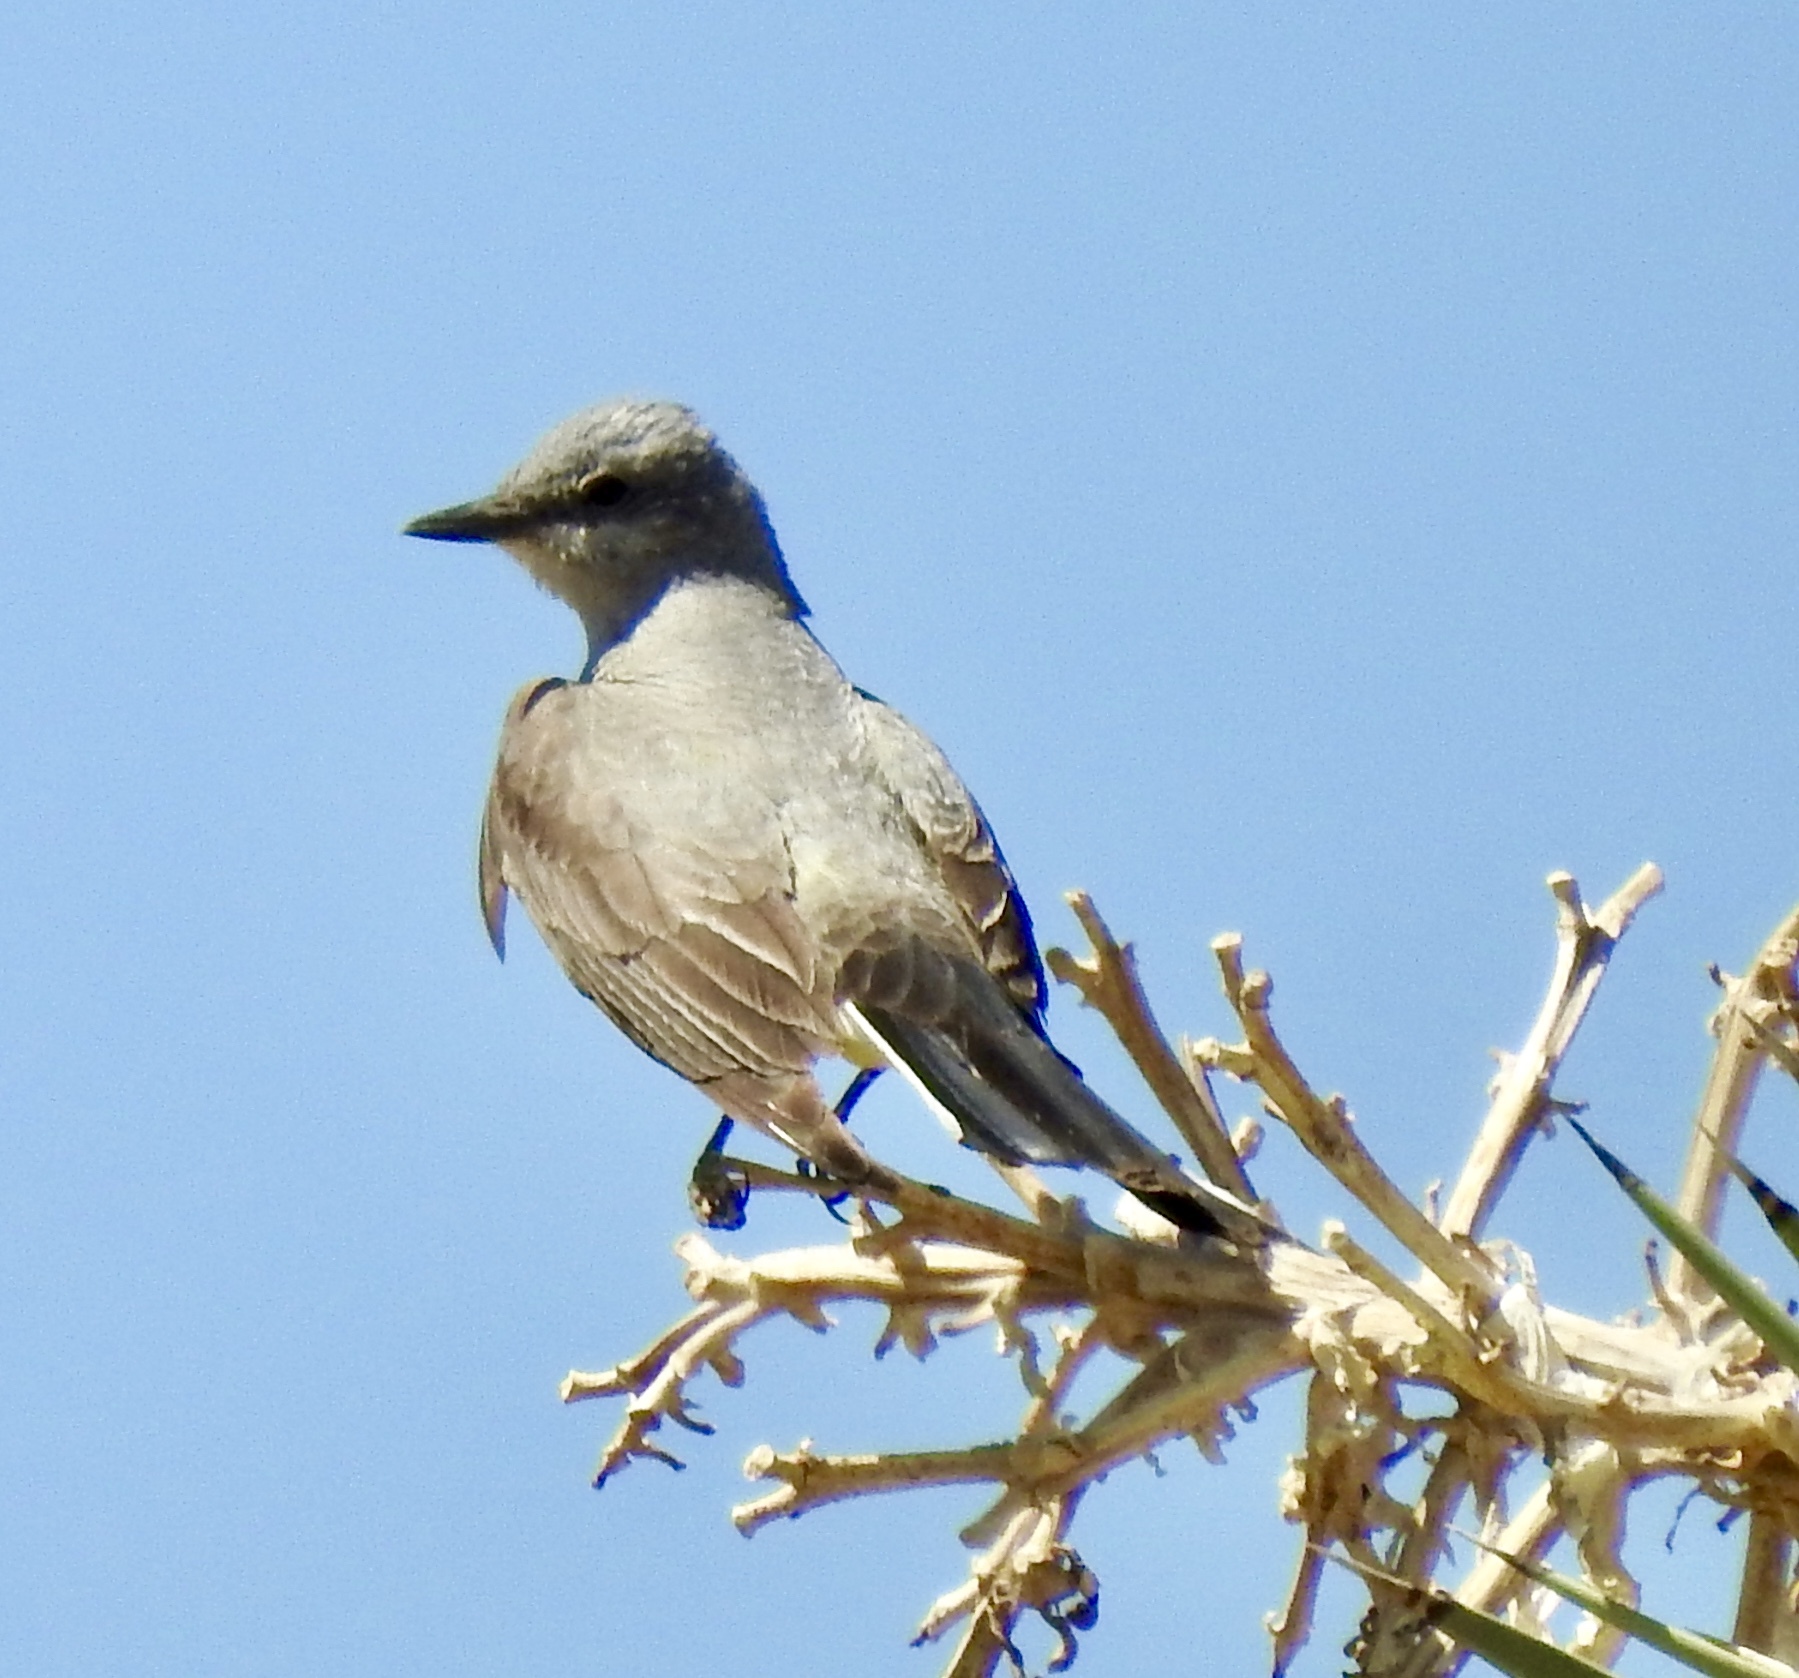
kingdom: Animalia
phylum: Chordata
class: Aves
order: Passeriformes
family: Tyrannidae
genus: Tyrannus
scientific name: Tyrannus verticalis
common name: Western kingbird
